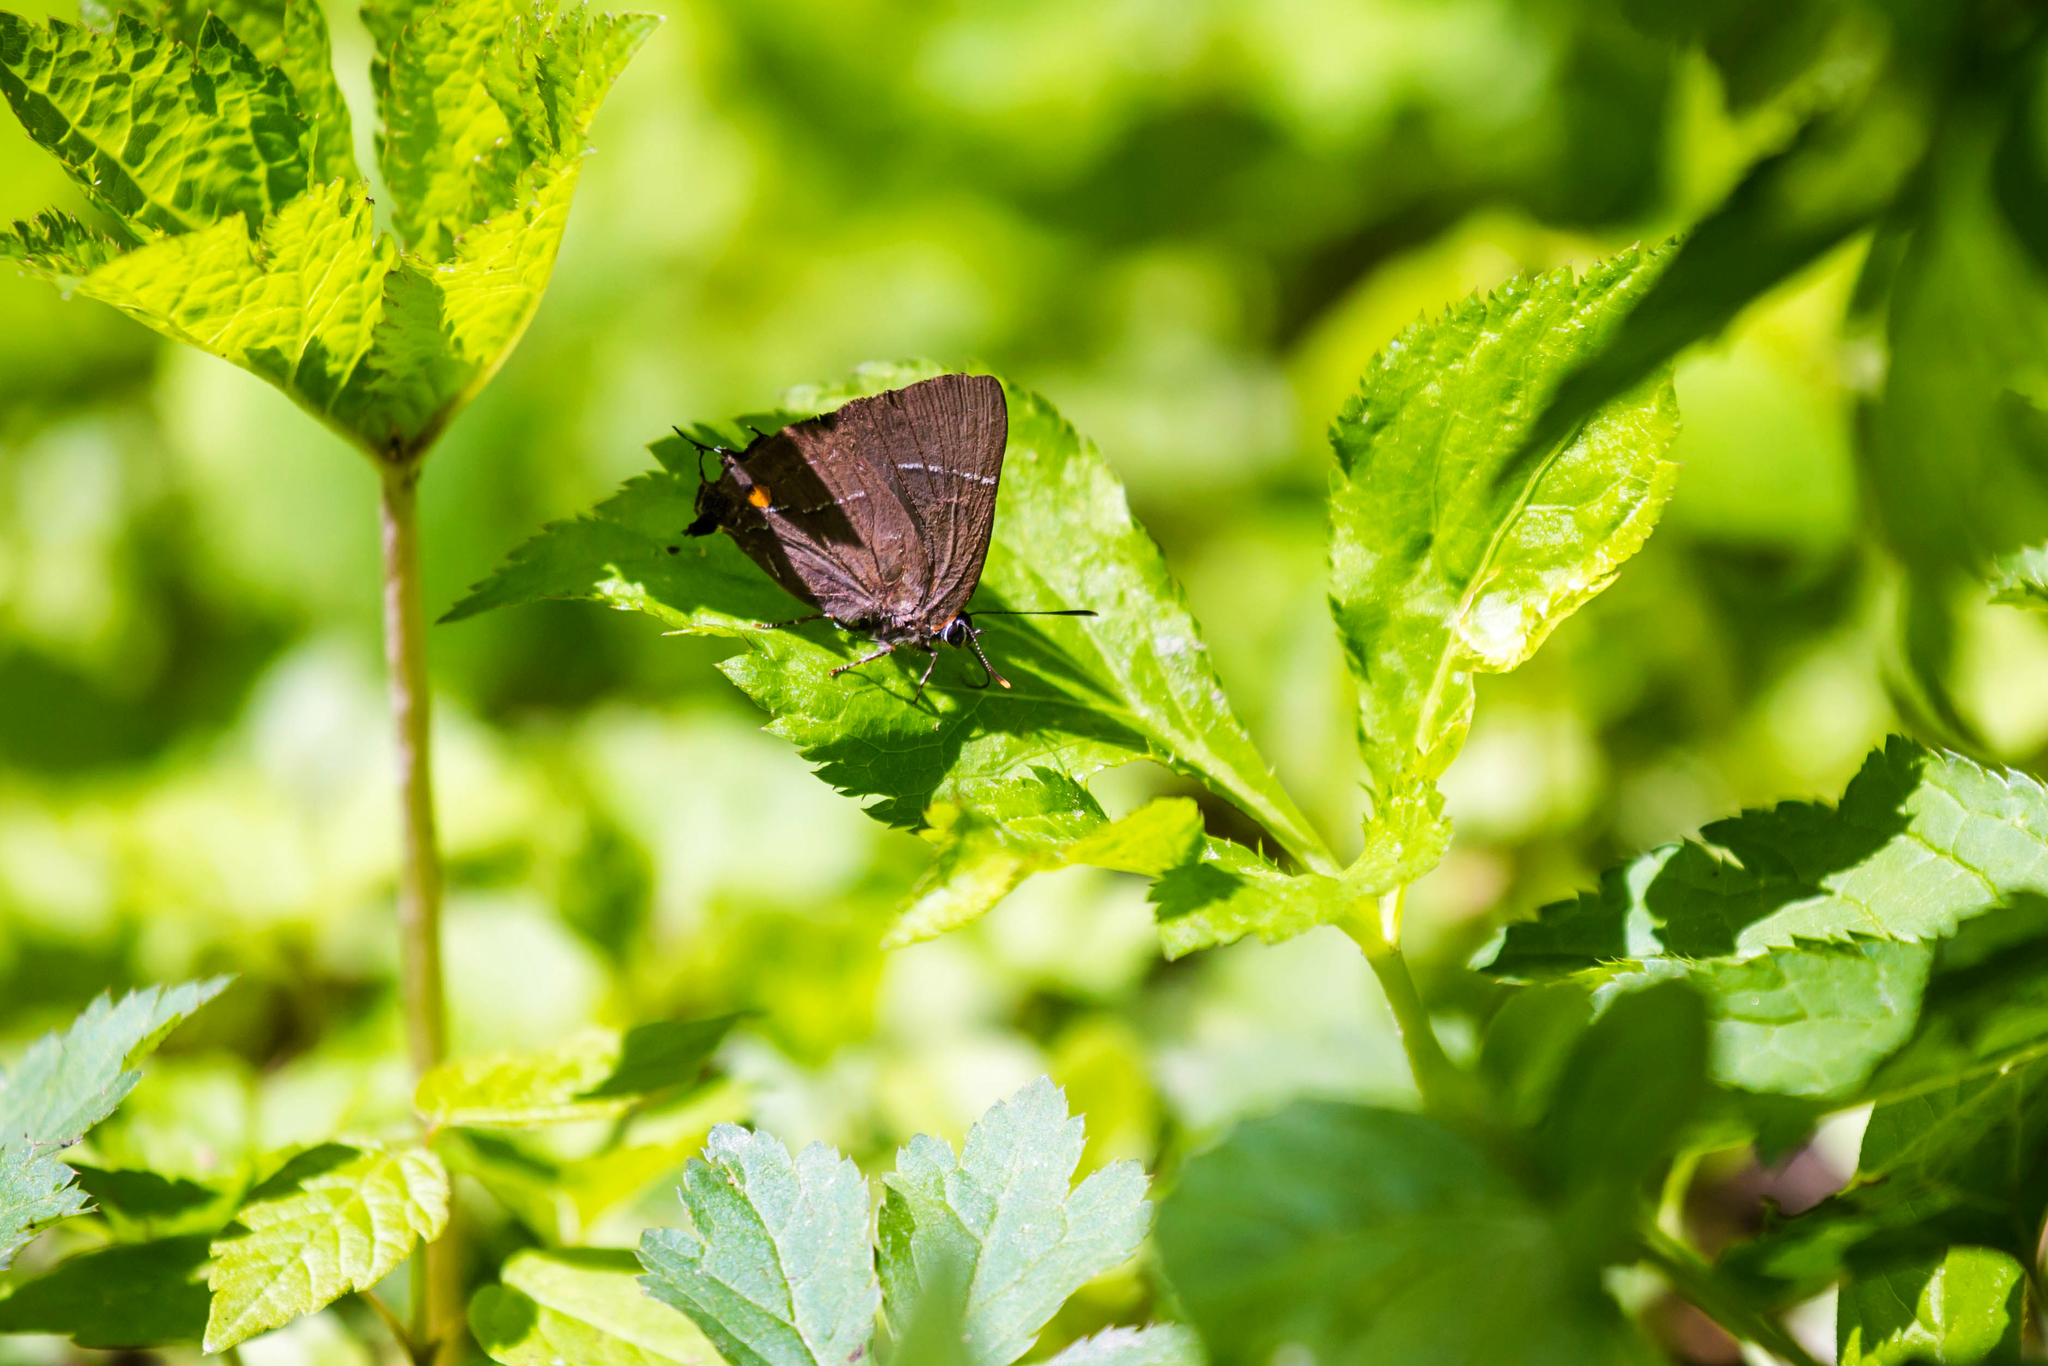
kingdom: Animalia
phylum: Arthropoda
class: Insecta
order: Lepidoptera
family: Lycaenidae
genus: Parrhasius
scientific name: Parrhasius m-album
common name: White m hairstreak
